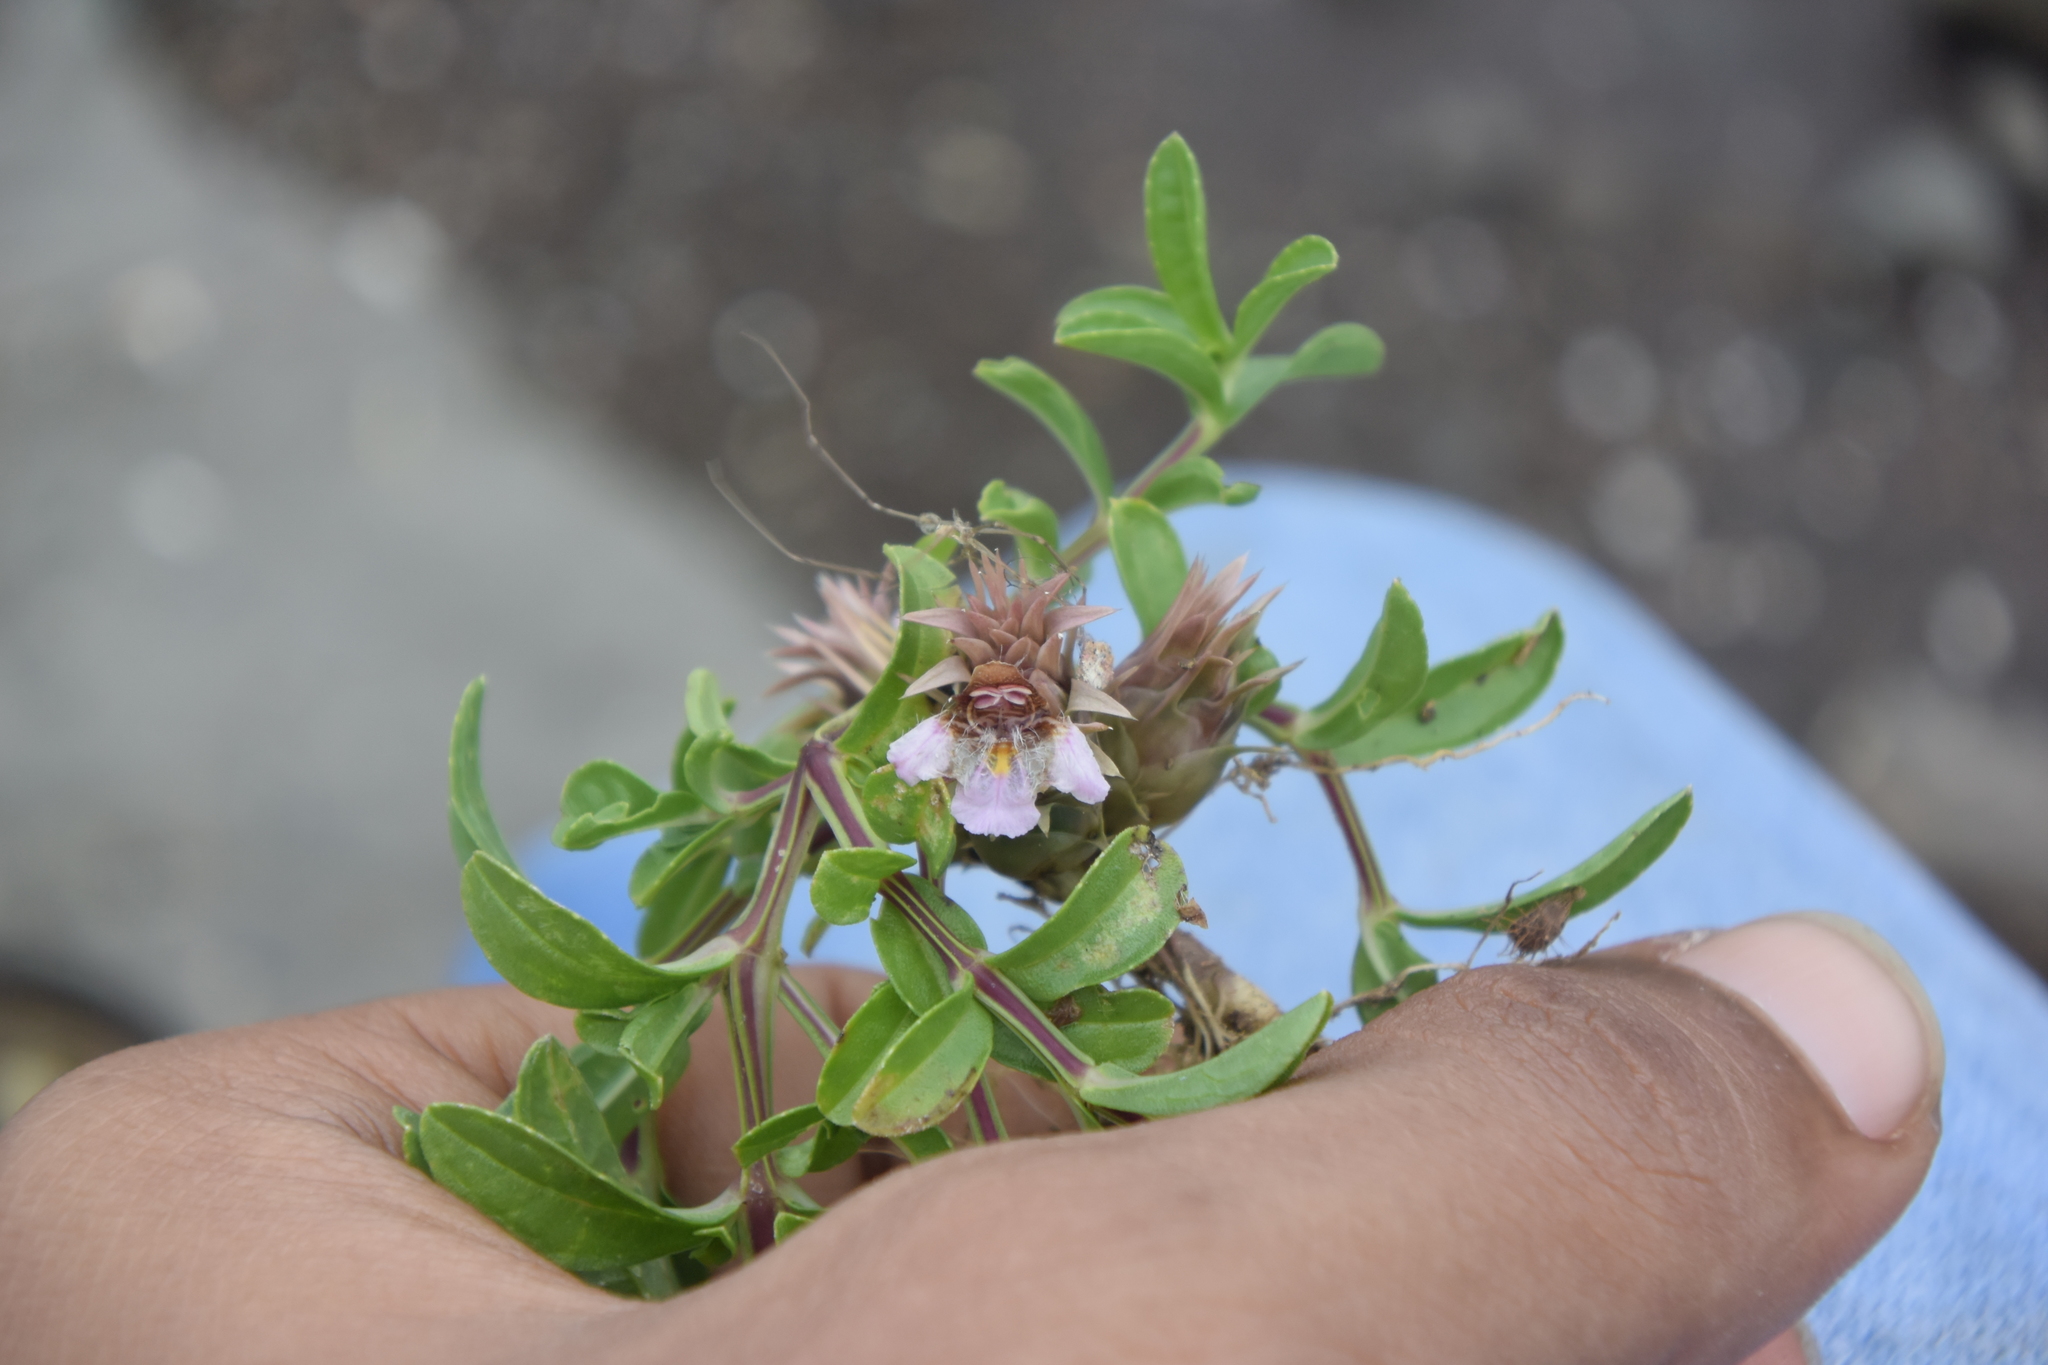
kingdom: Plantae
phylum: Tracheophyta
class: Magnoliopsida
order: Lamiales
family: Acanthaceae
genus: Lepidagathis
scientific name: Lepidagathis trinervis
